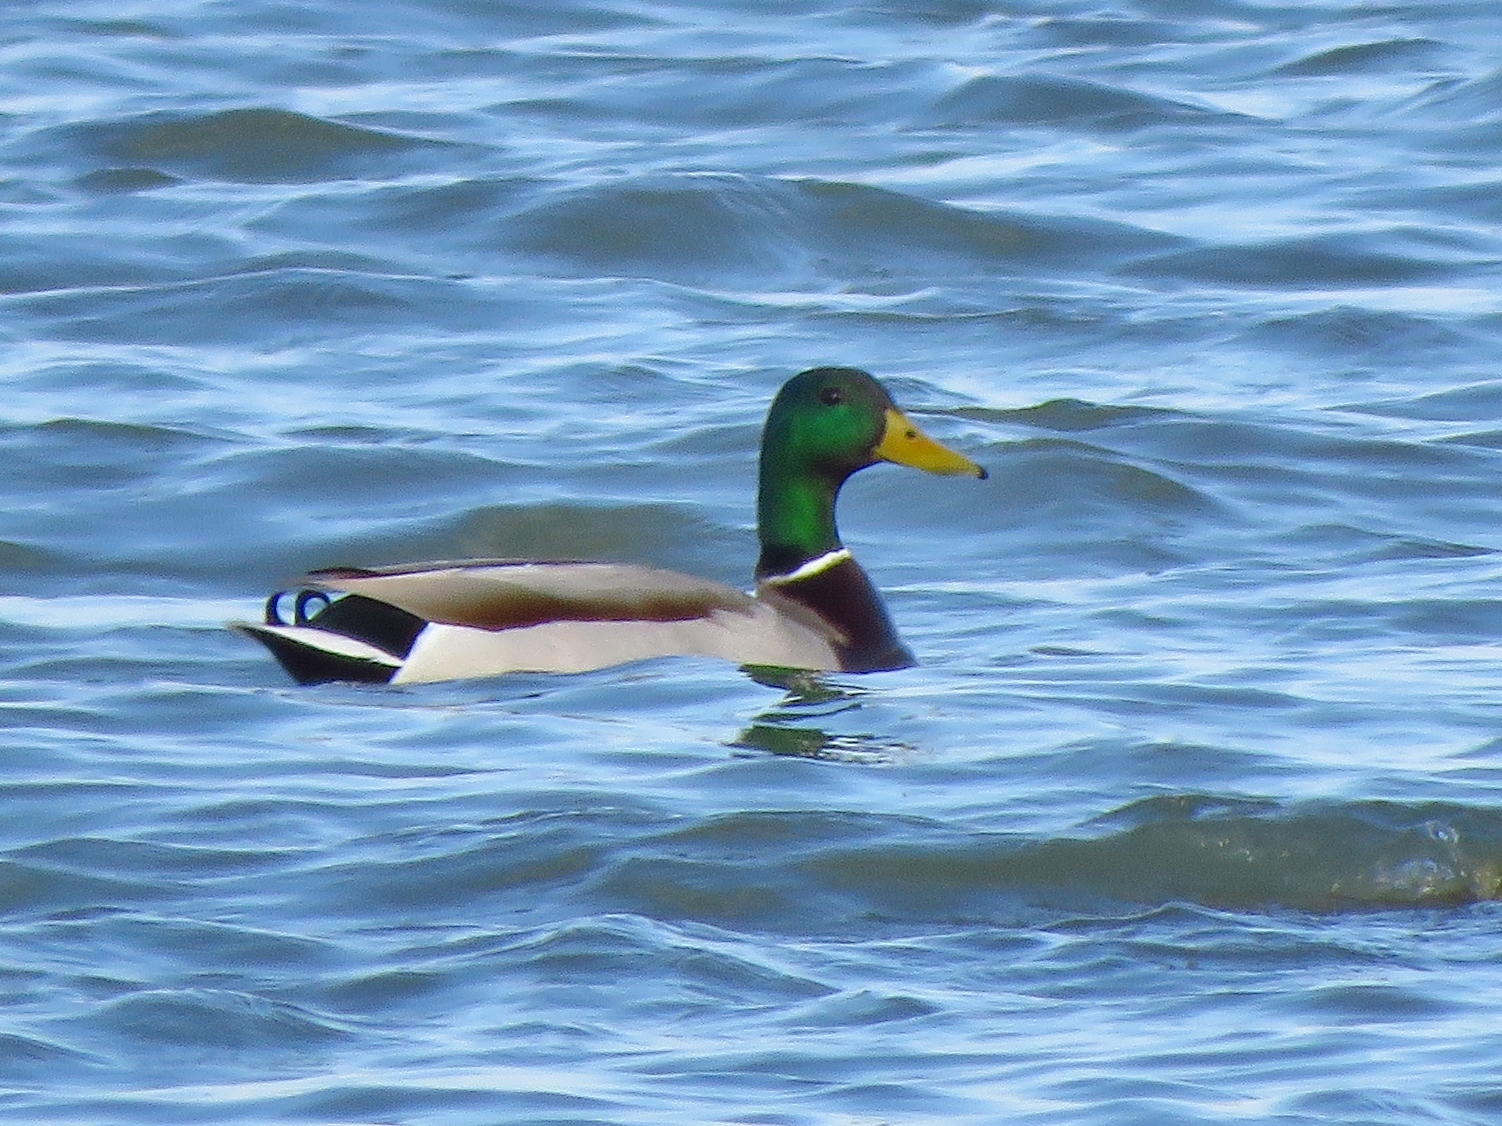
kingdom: Animalia
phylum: Chordata
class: Aves
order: Anseriformes
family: Anatidae
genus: Anas
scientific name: Anas platyrhynchos
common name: Mallard
